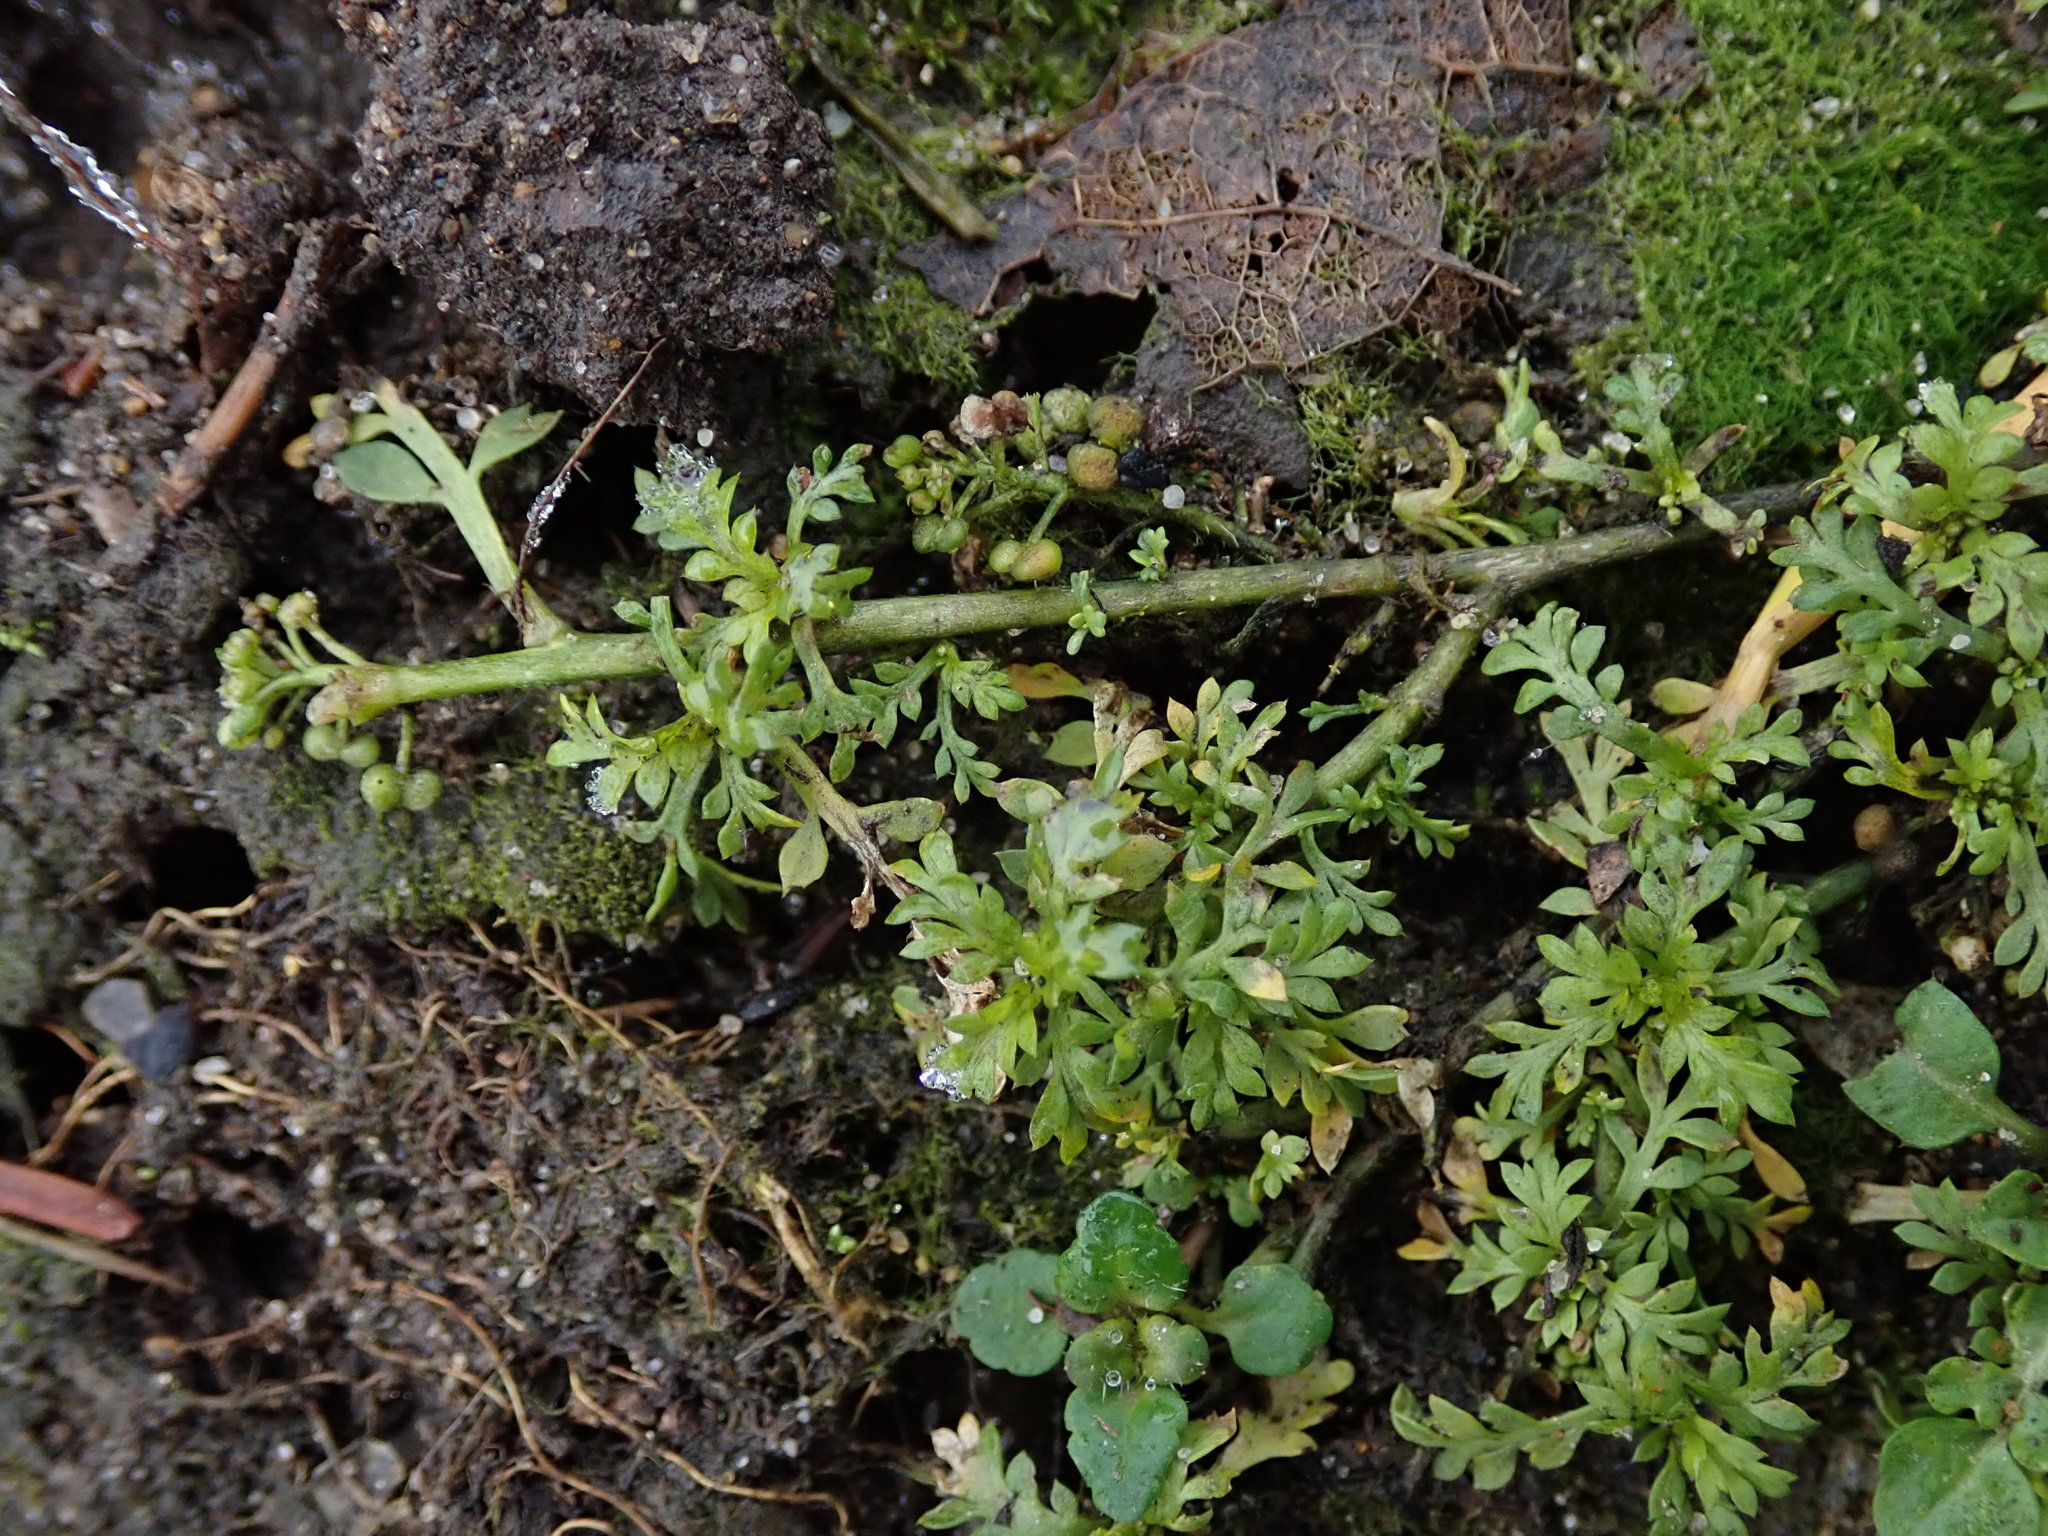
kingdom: Plantae
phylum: Tracheophyta
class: Magnoliopsida
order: Brassicales
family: Brassicaceae
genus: Lepidium
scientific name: Lepidium didymum
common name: Lesser swinecress
